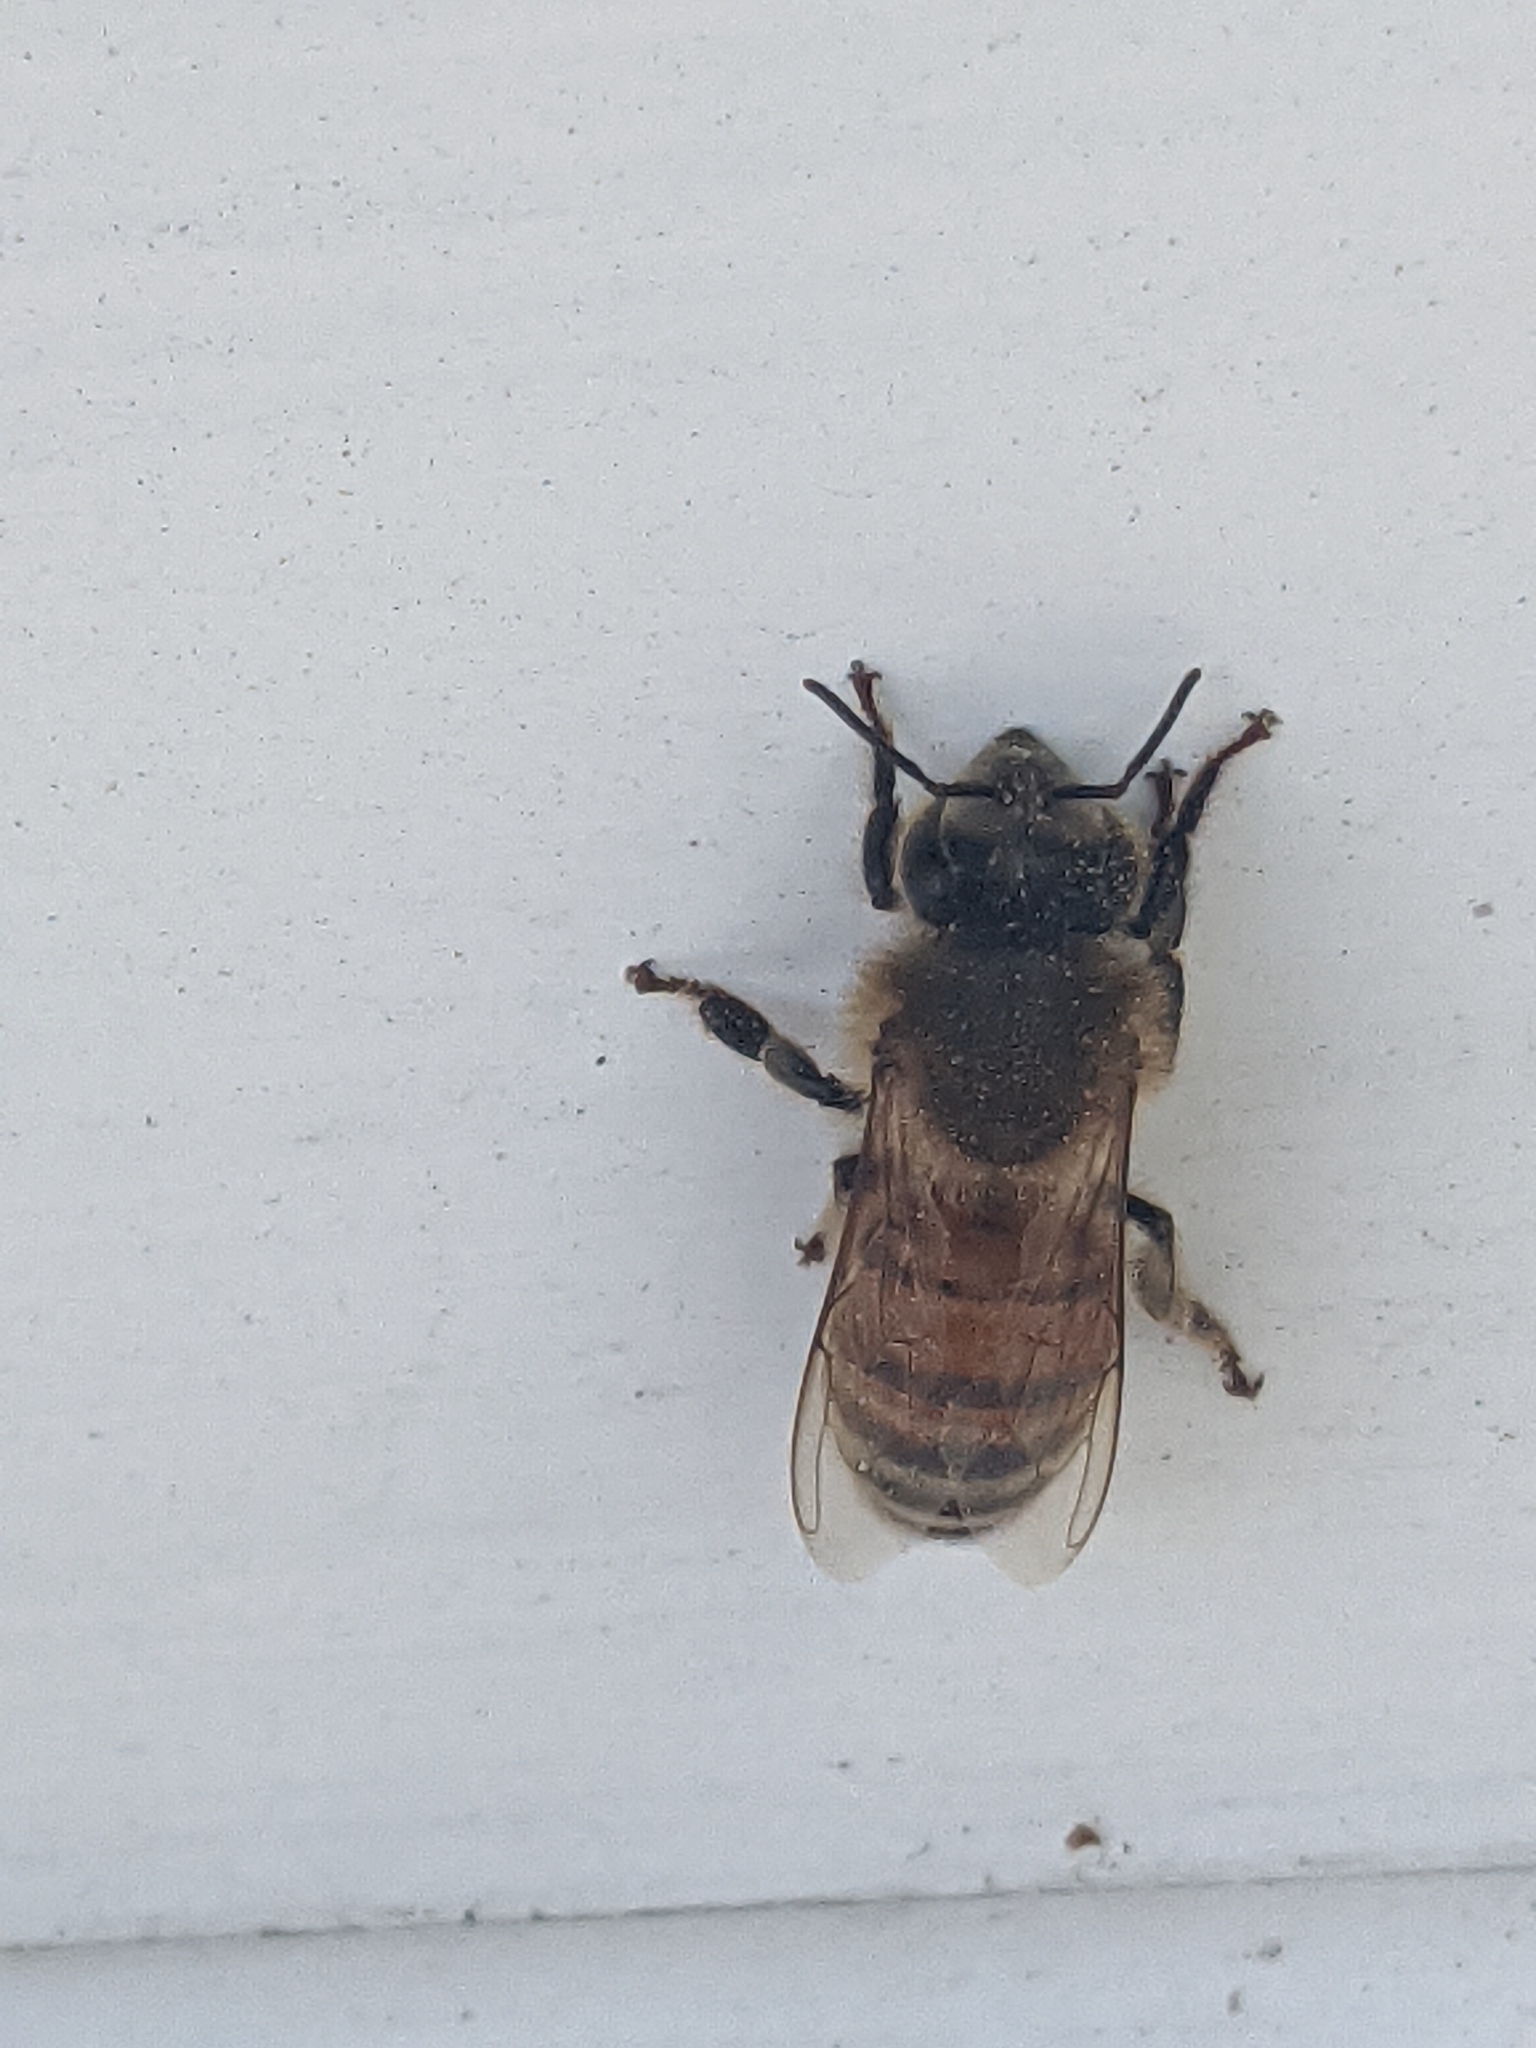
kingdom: Animalia
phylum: Arthropoda
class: Insecta
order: Hymenoptera
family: Apidae
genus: Apis
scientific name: Apis mellifera
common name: Honey bee
